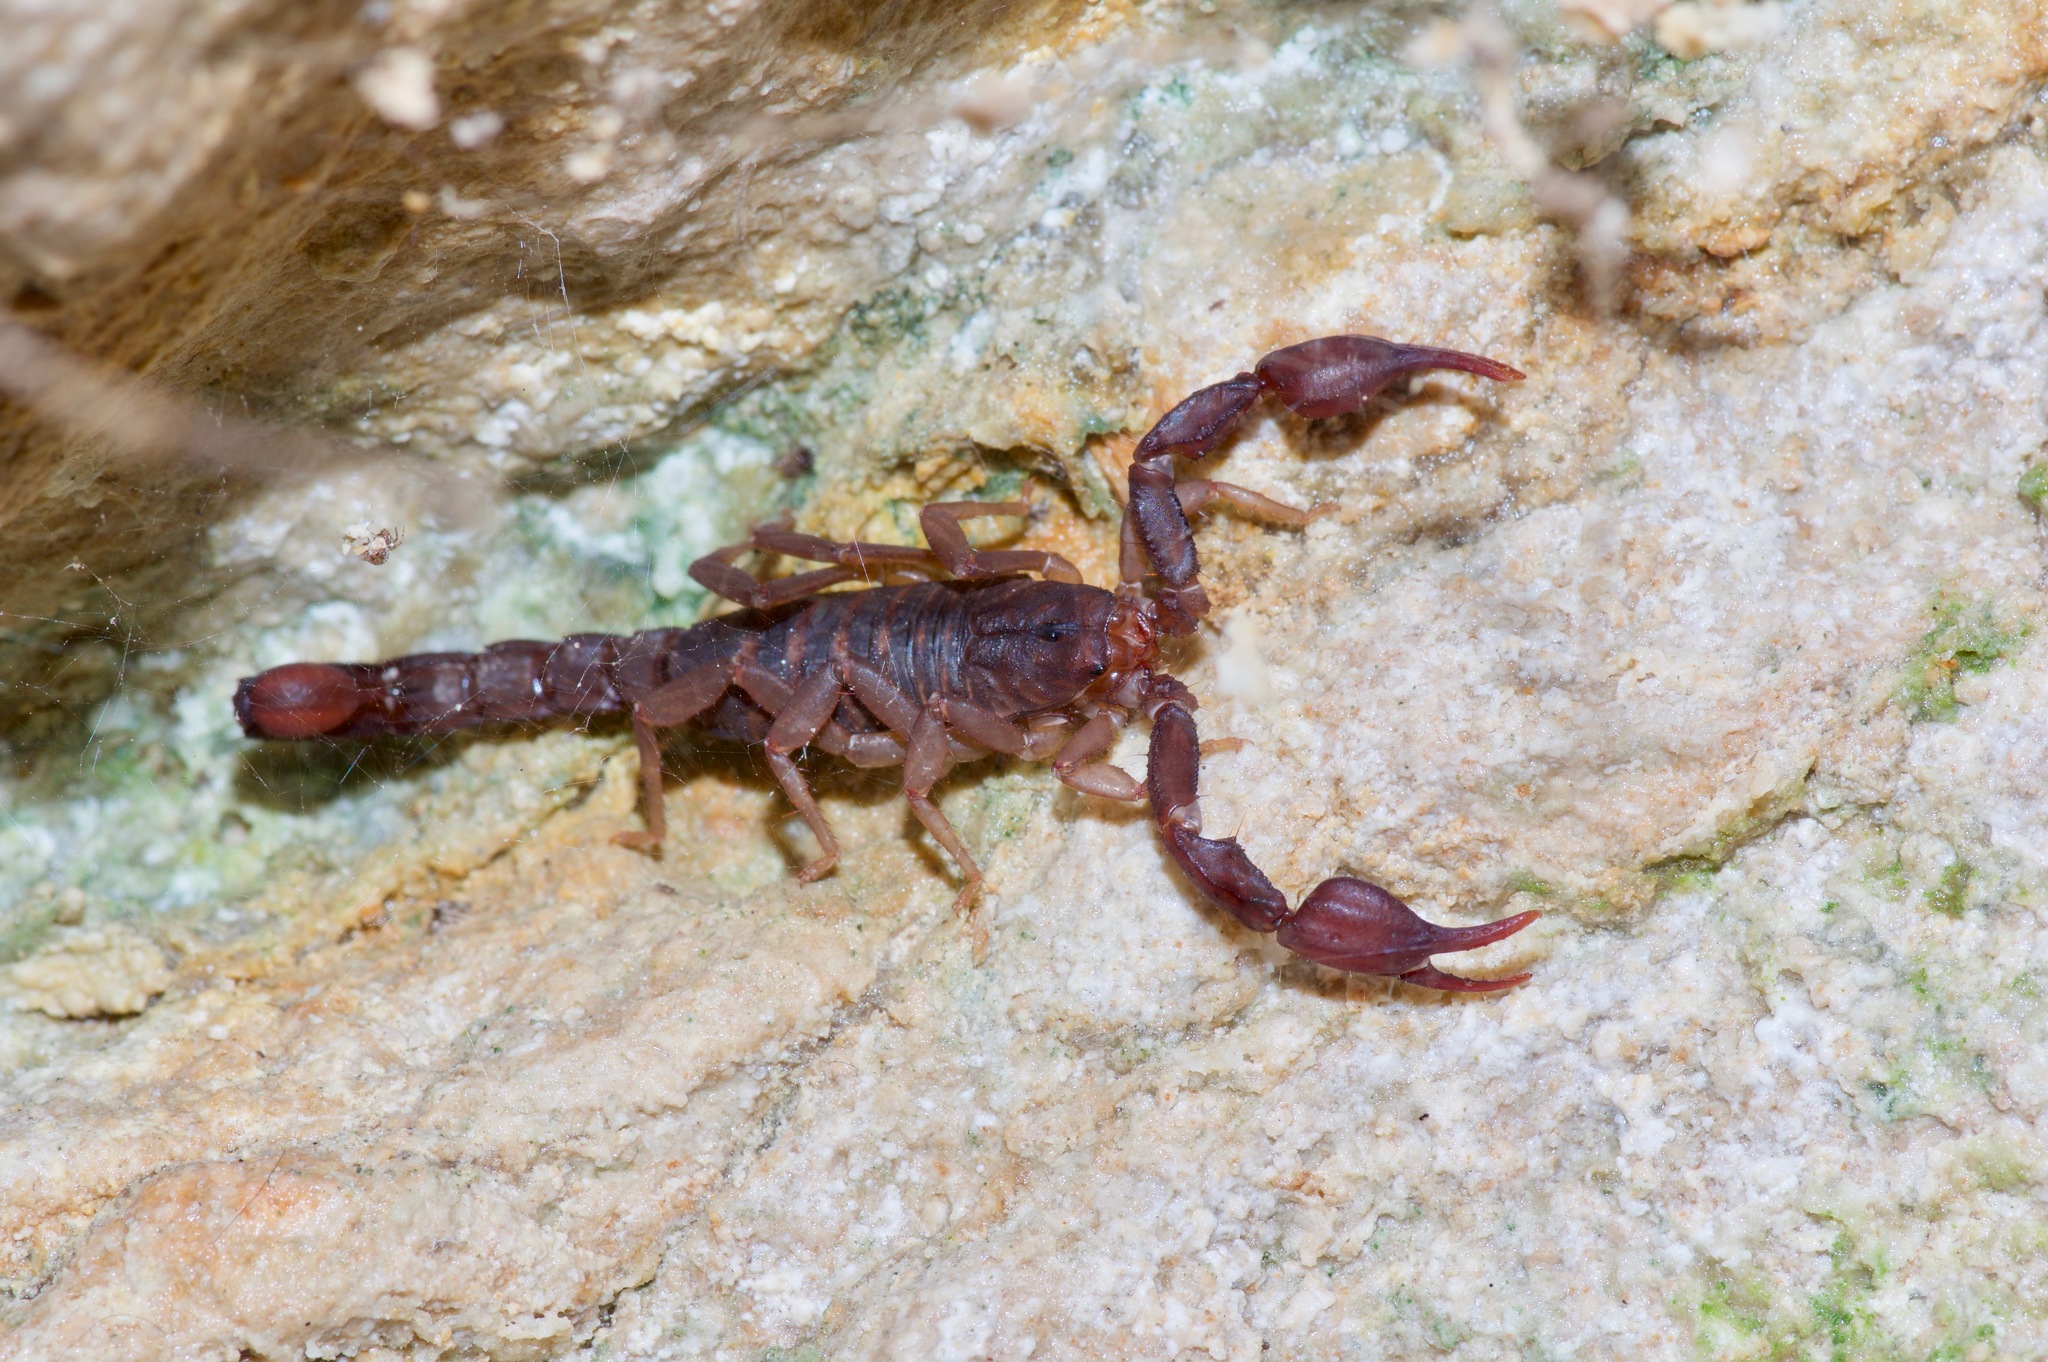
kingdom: Animalia
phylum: Arthropoda
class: Arachnida
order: Scorpiones
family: Vaejovidae
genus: Pseudouroctonus
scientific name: Pseudouroctonus reddelli
